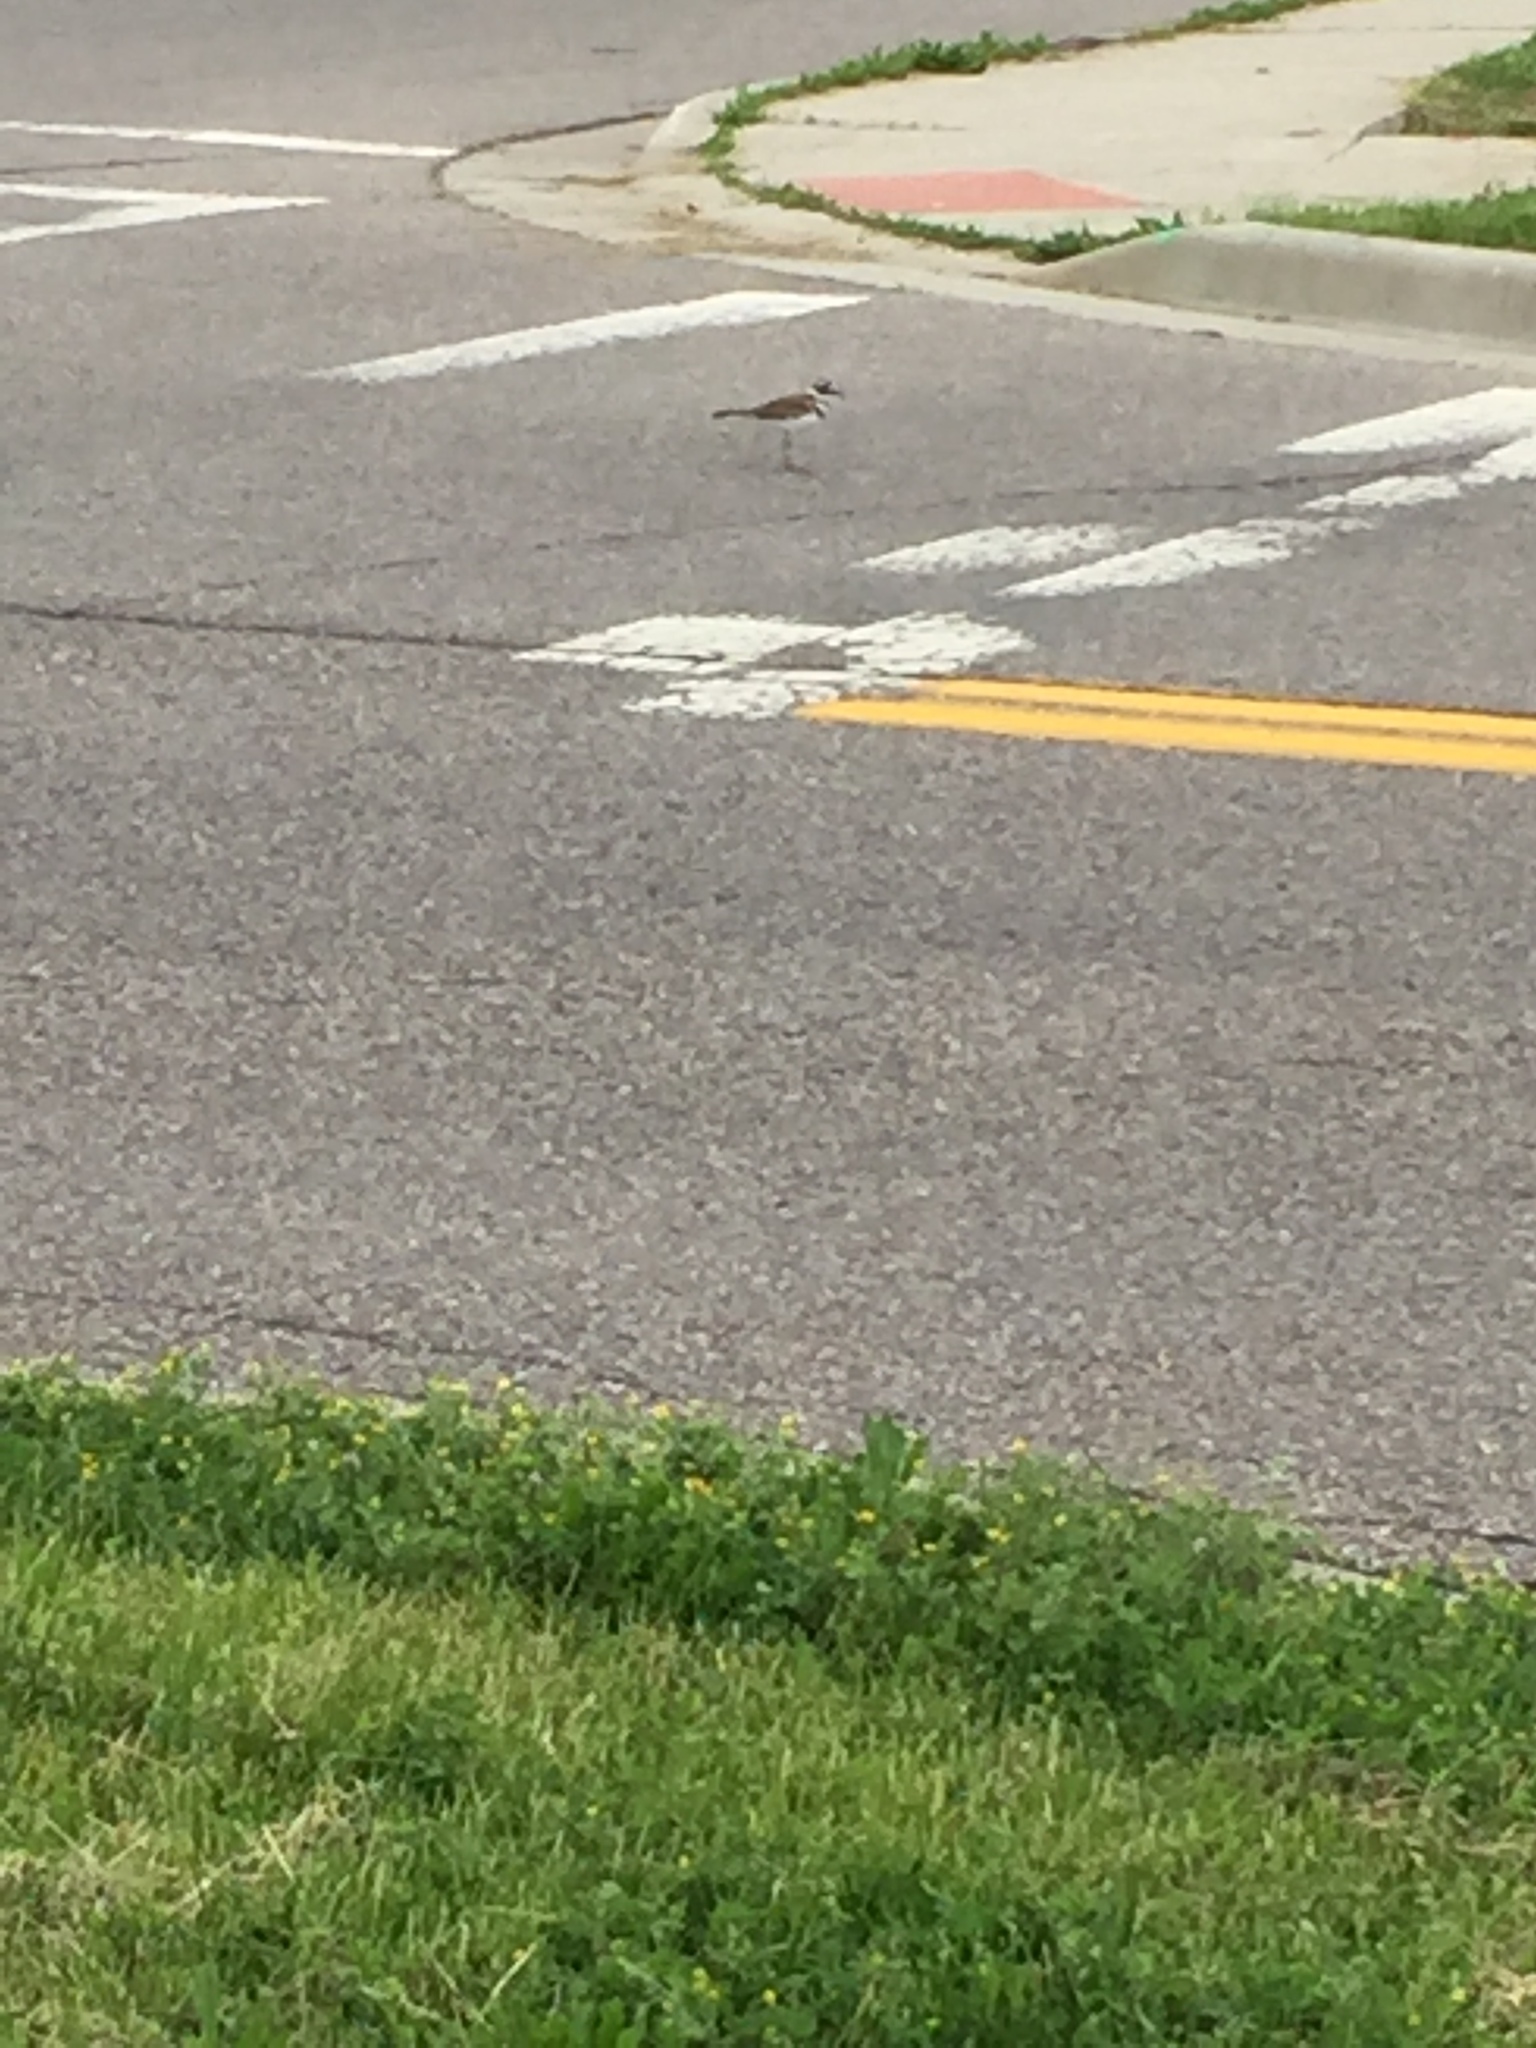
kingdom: Animalia
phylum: Chordata
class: Aves
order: Charadriiformes
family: Charadriidae
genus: Charadrius
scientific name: Charadrius vociferus
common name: Killdeer
